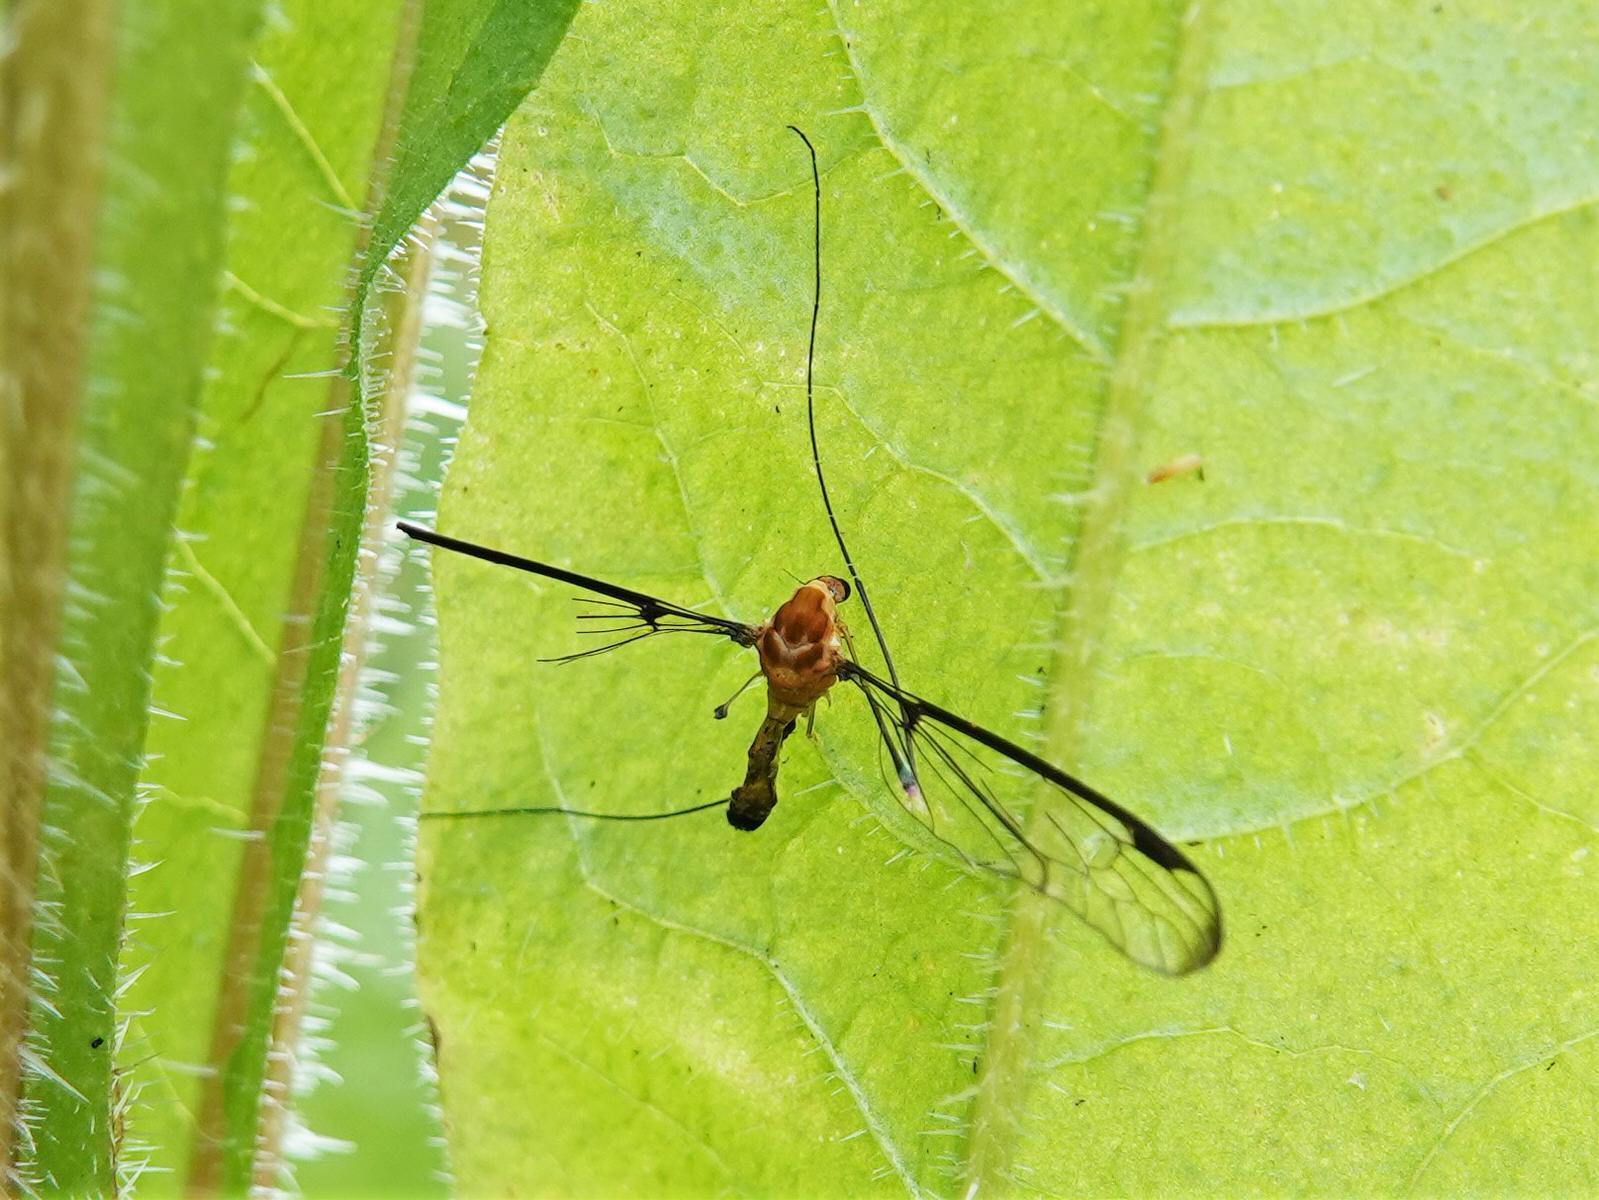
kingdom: Animalia
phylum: Arthropoda
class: Insecta
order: Diptera
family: Tipulidae
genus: Aurotipula
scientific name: Aurotipula
